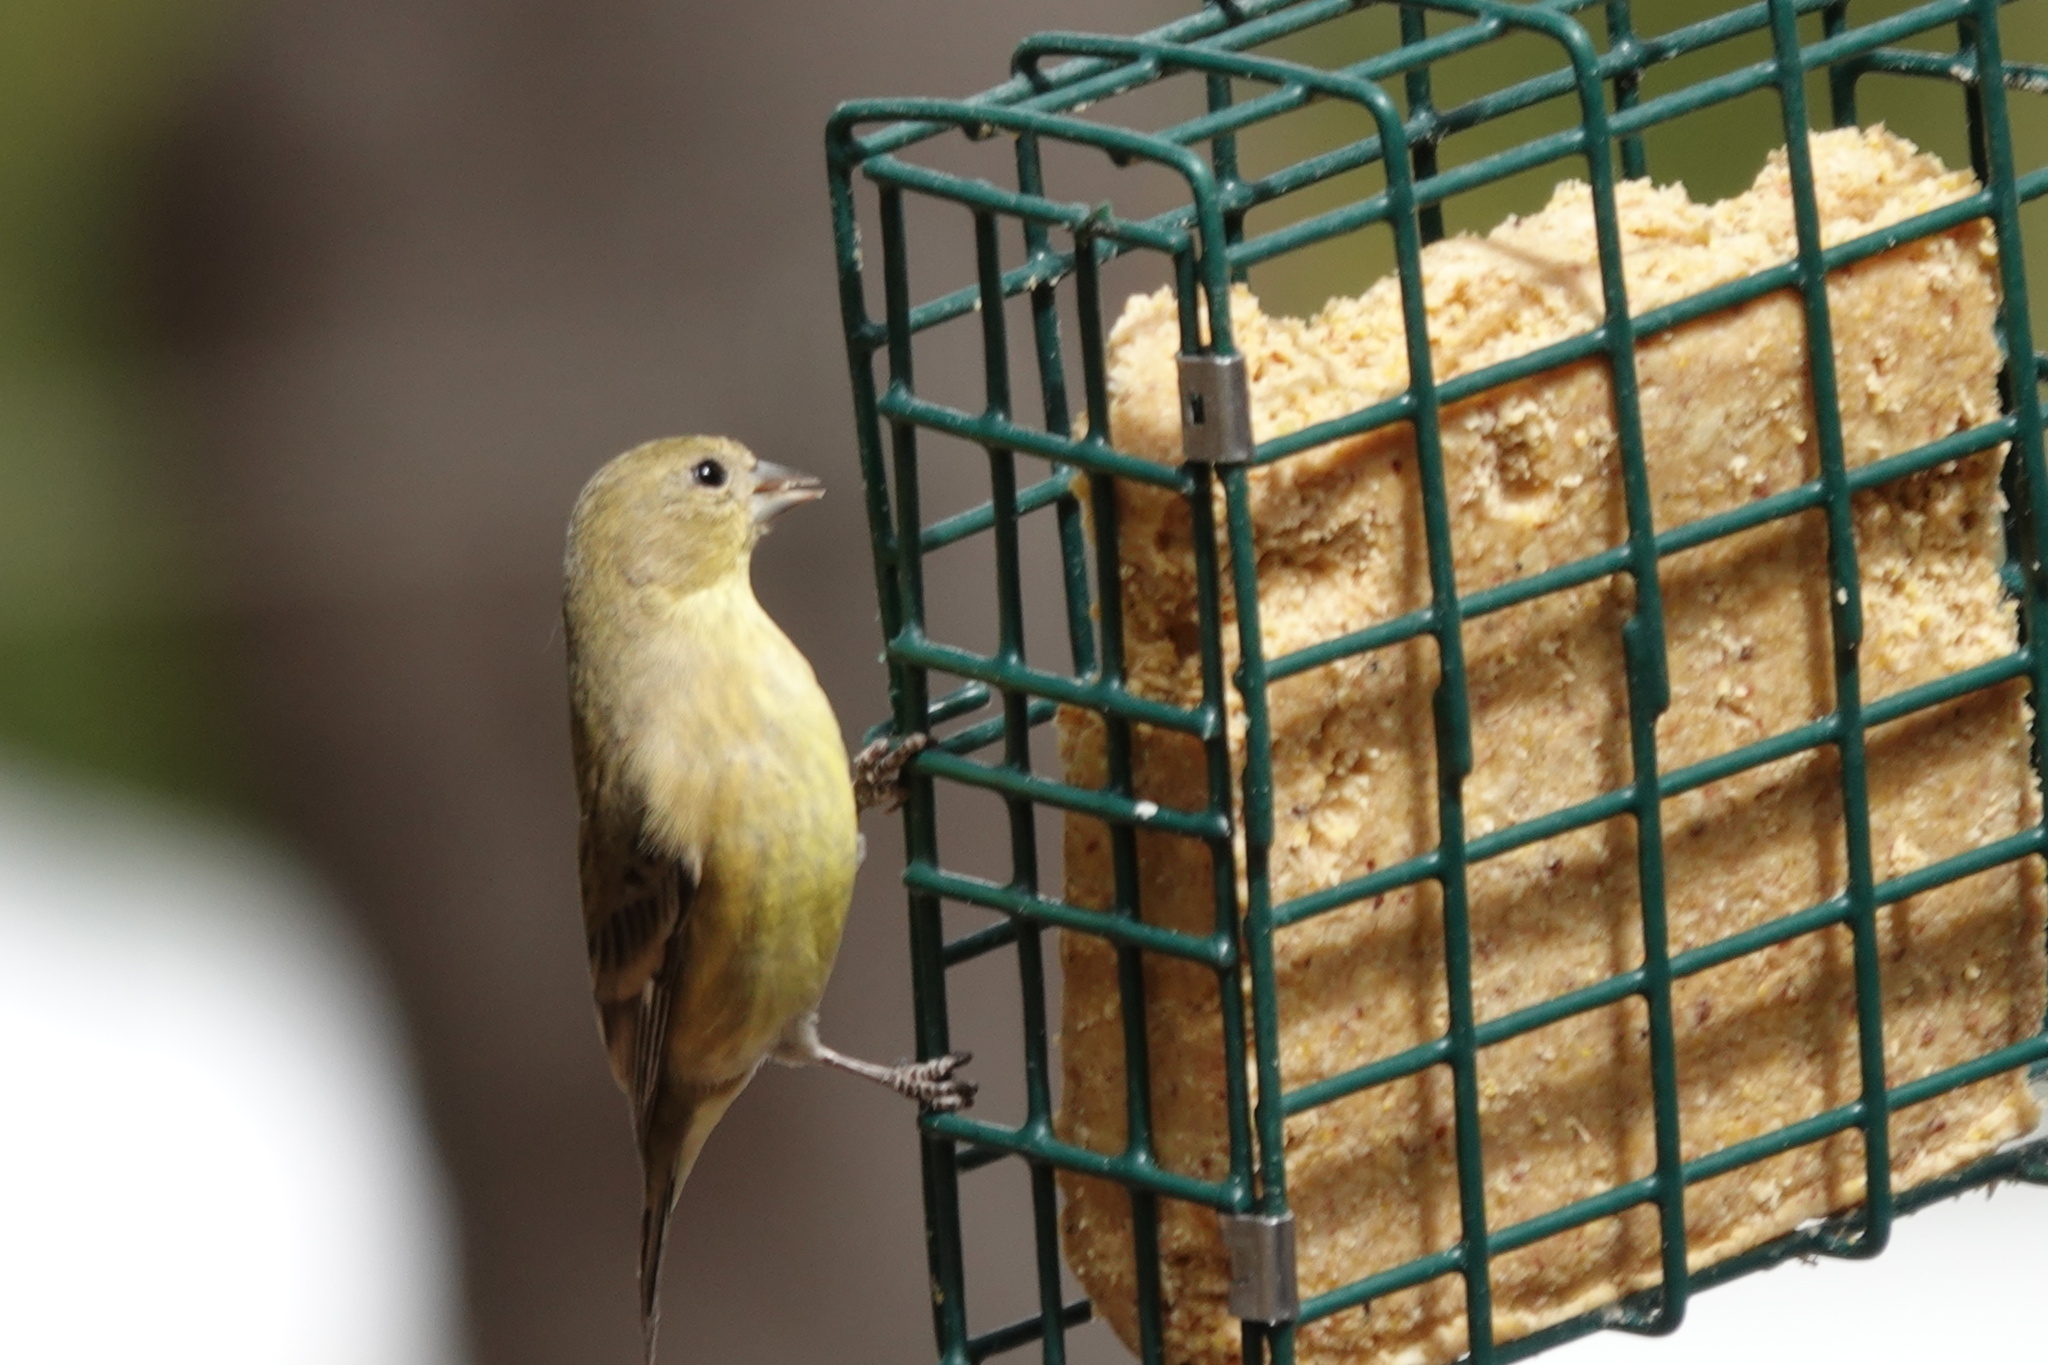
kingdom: Animalia
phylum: Chordata
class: Aves
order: Passeriformes
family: Fringillidae
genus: Spinus
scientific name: Spinus psaltria
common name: Lesser goldfinch
